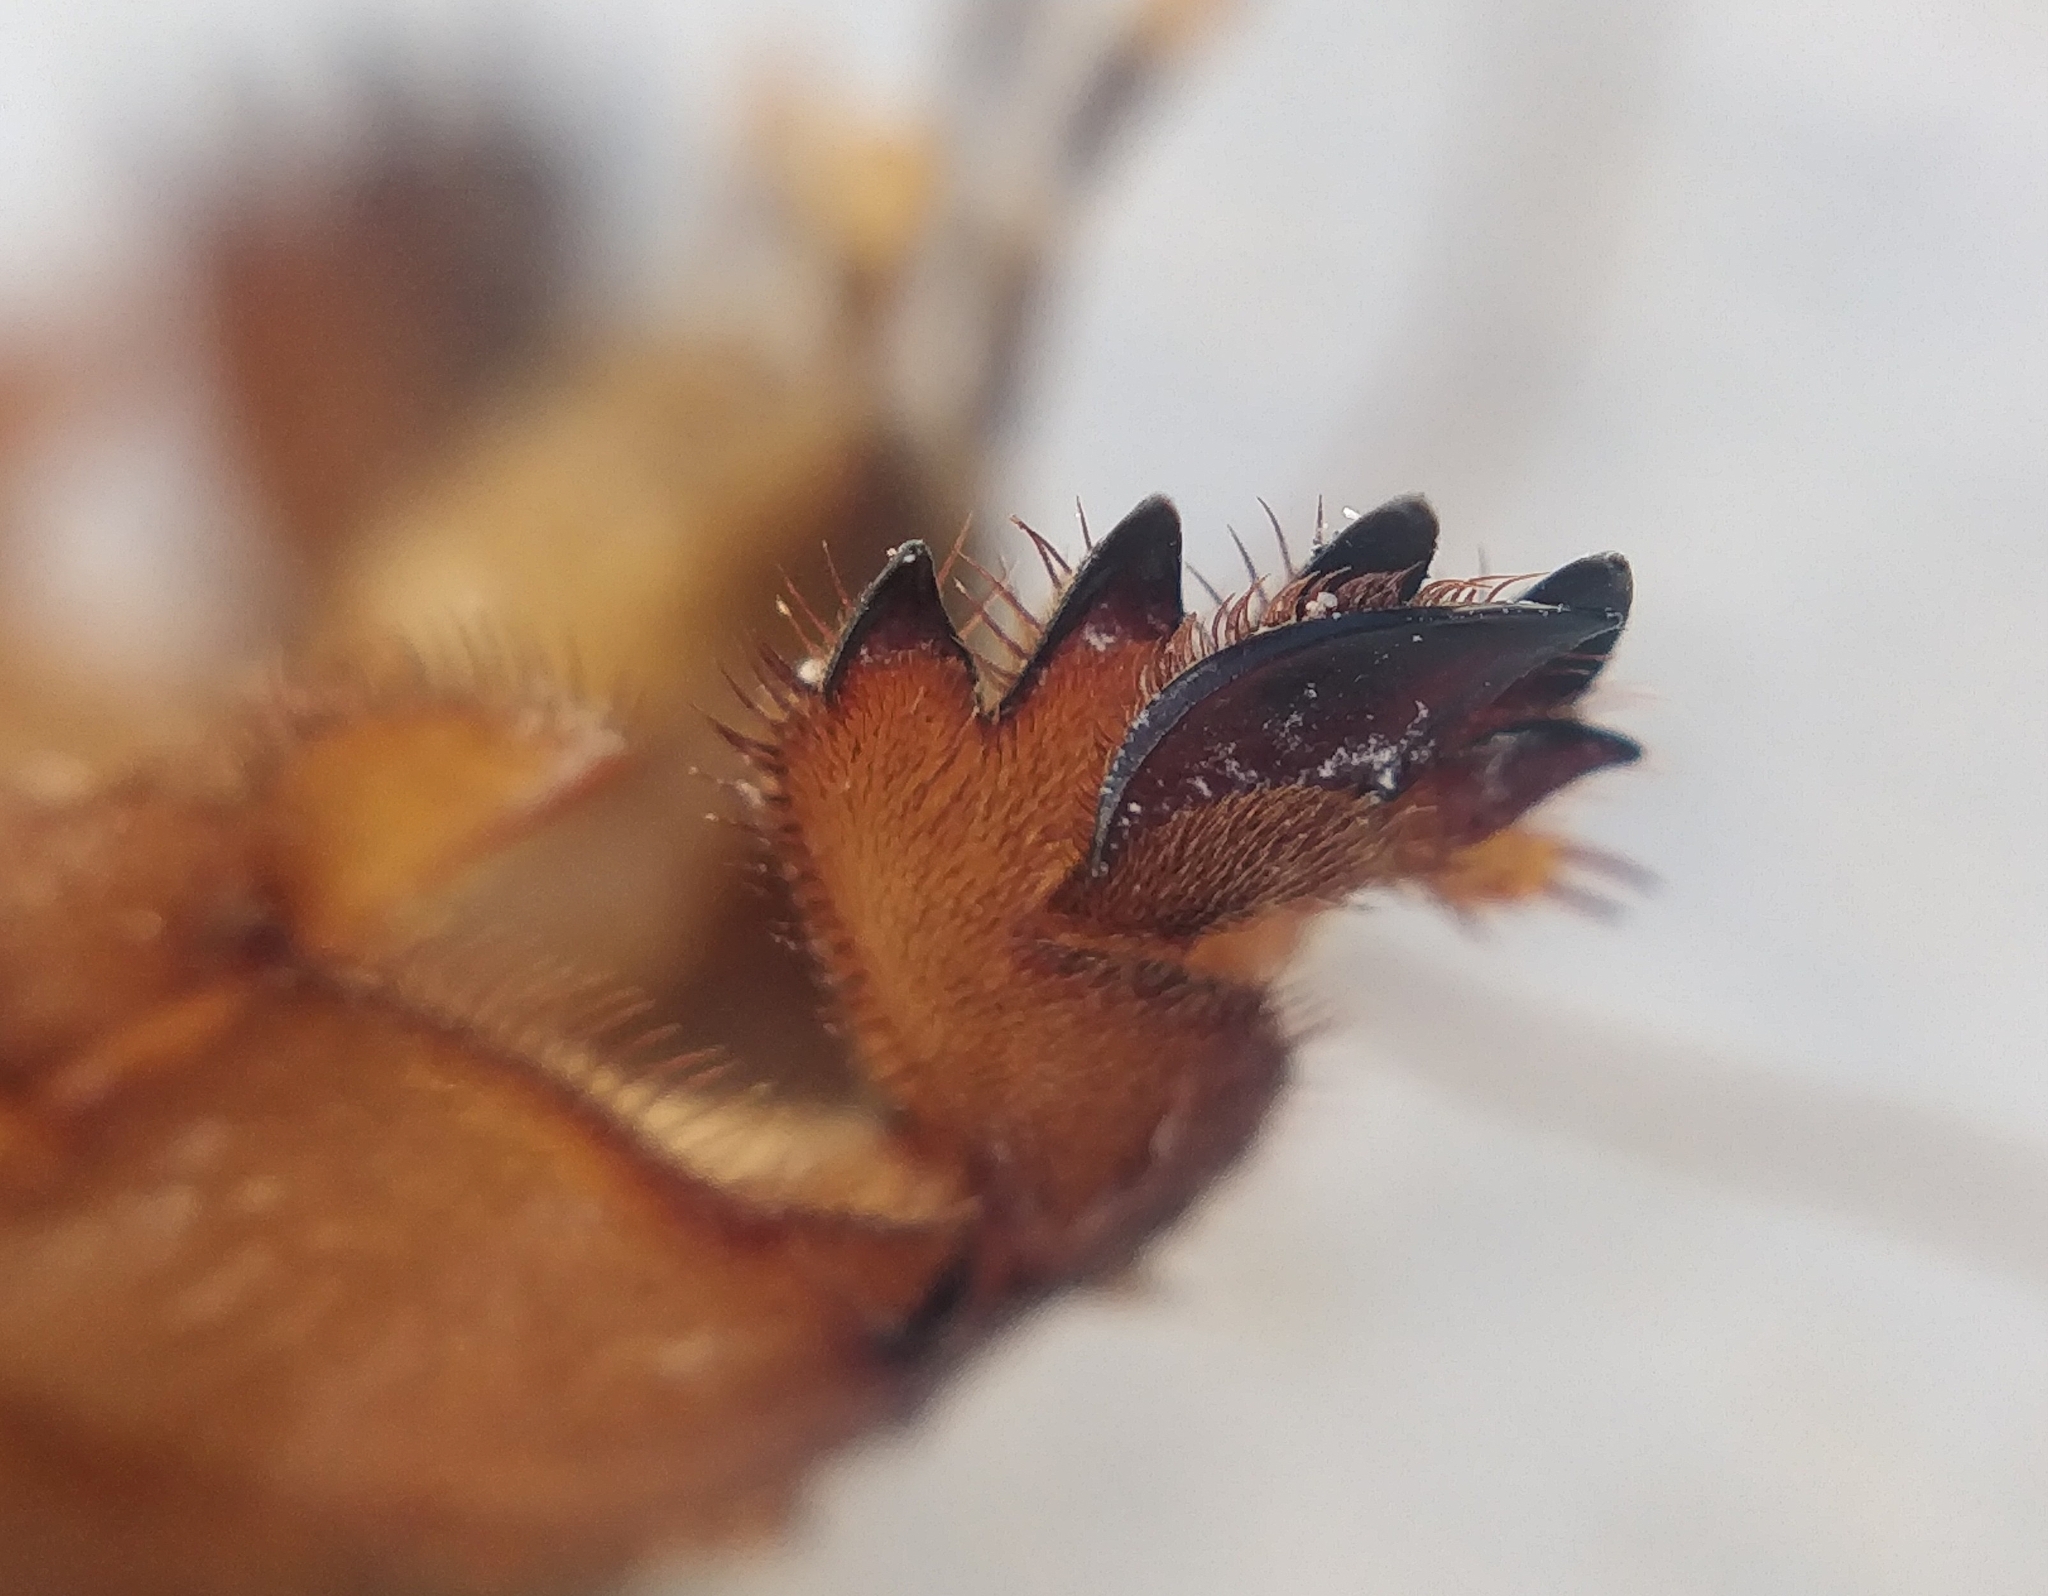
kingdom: Animalia
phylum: Arthropoda
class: Insecta
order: Orthoptera
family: Gryllotalpidae
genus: Gryllotalpa
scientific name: Gryllotalpa africana
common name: African mole cricket
